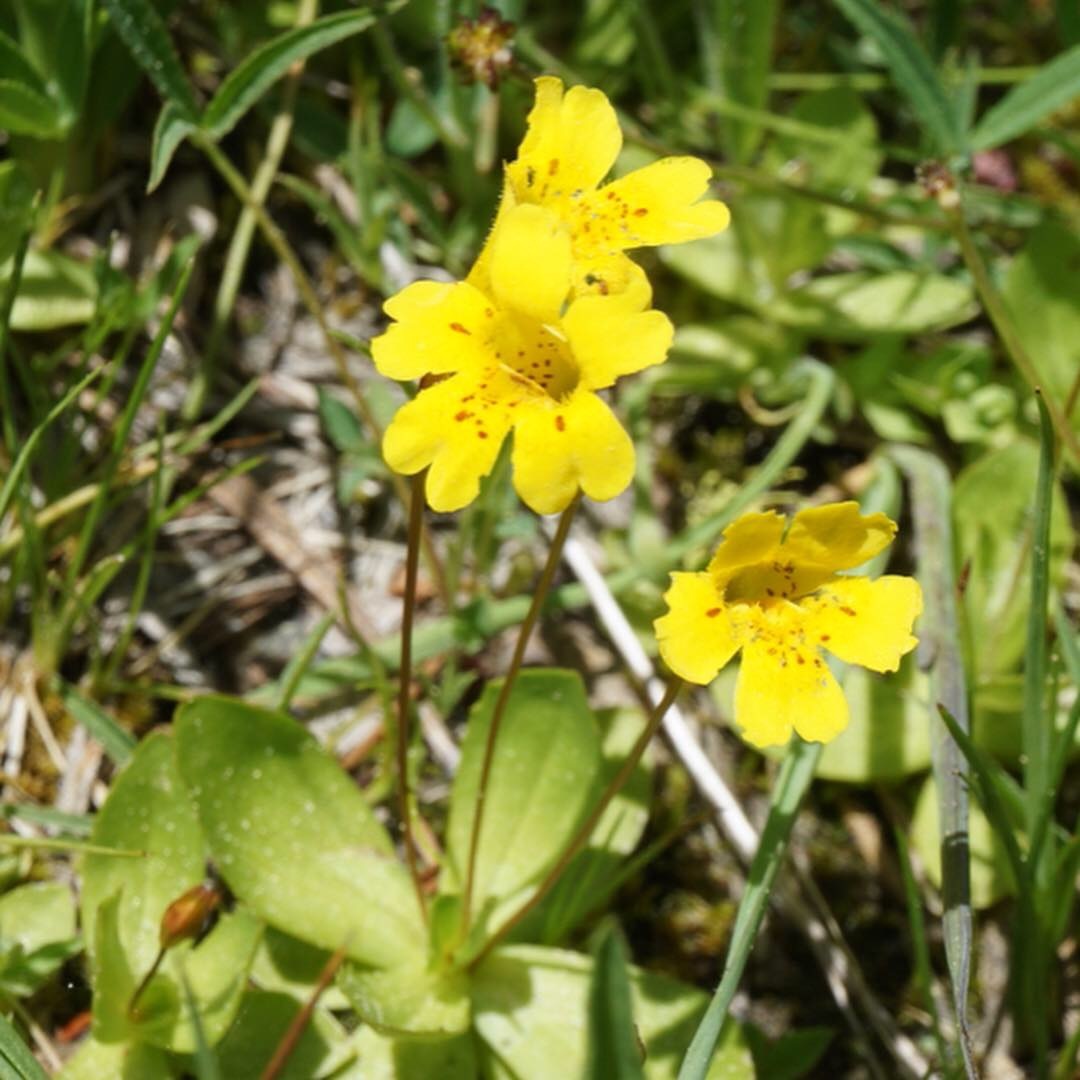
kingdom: Plantae
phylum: Tracheophyta
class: Magnoliopsida
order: Lamiales
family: Phrymaceae
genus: Erythranthe
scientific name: Erythranthe primuloides
